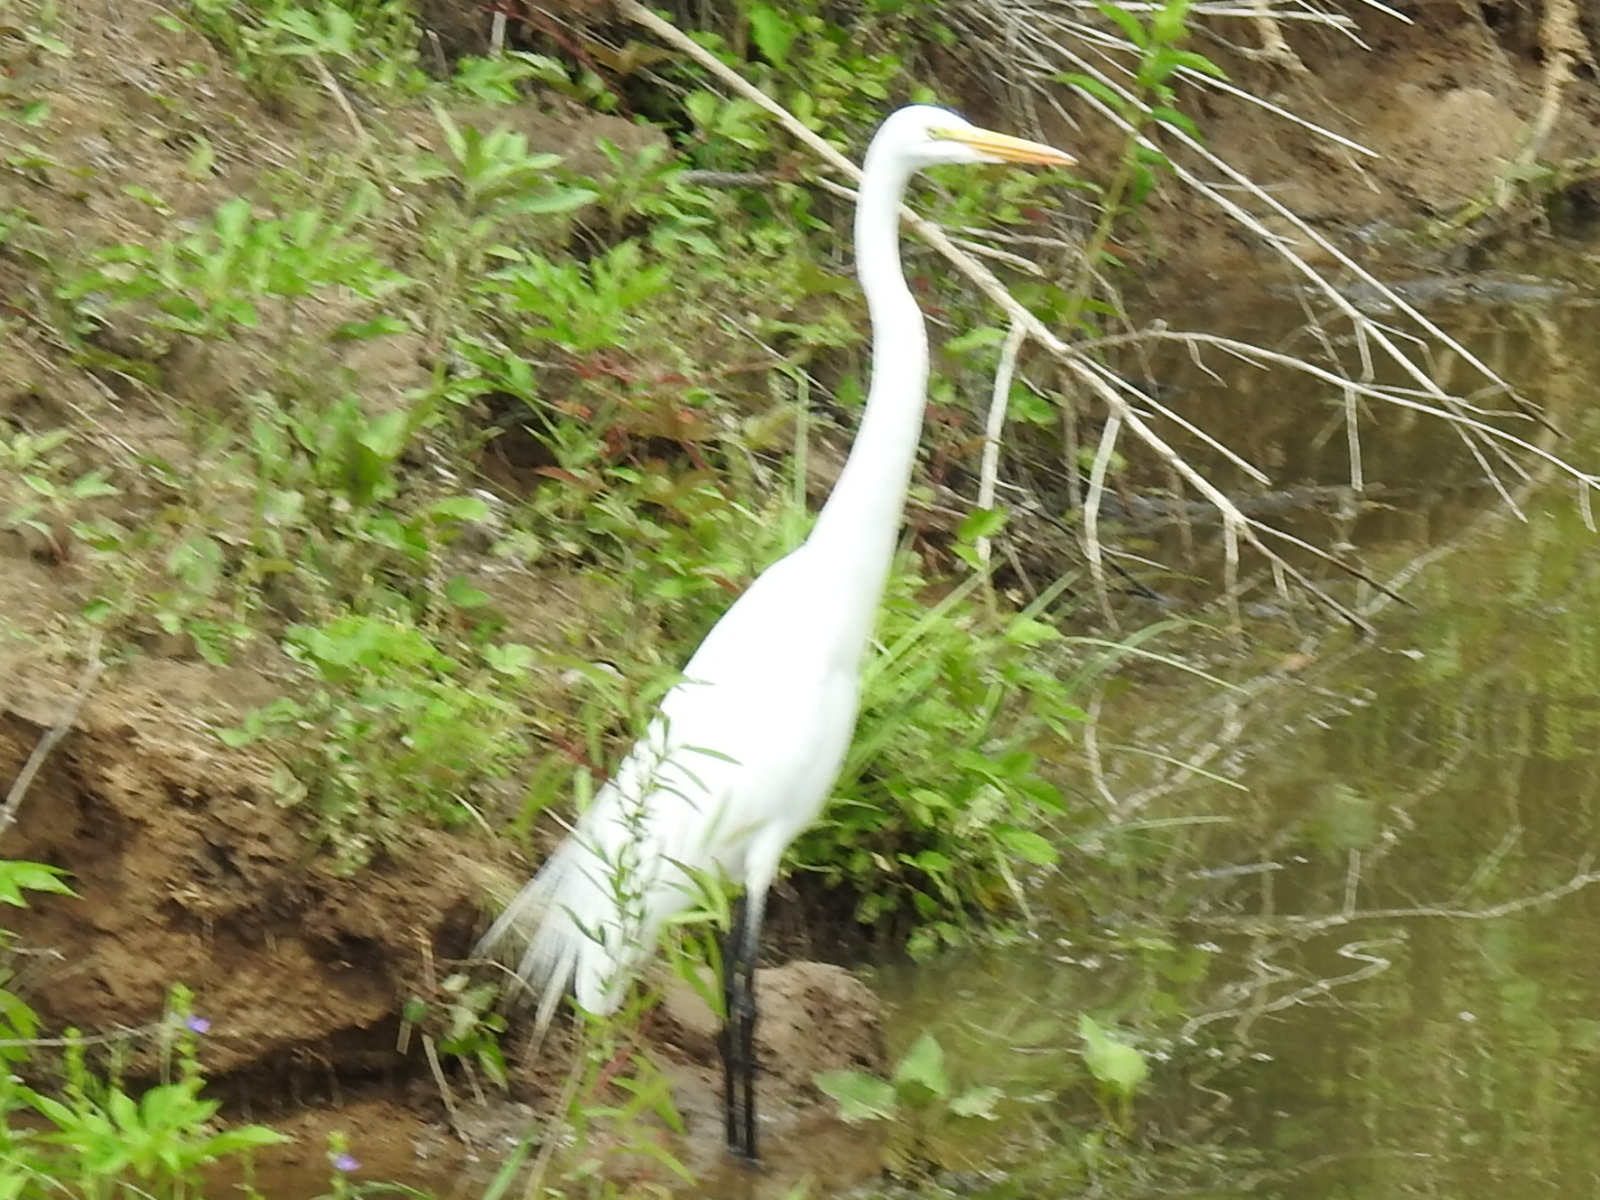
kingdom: Animalia
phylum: Chordata
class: Aves
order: Pelecaniformes
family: Ardeidae
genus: Ardea
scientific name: Ardea alba
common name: Great egret
